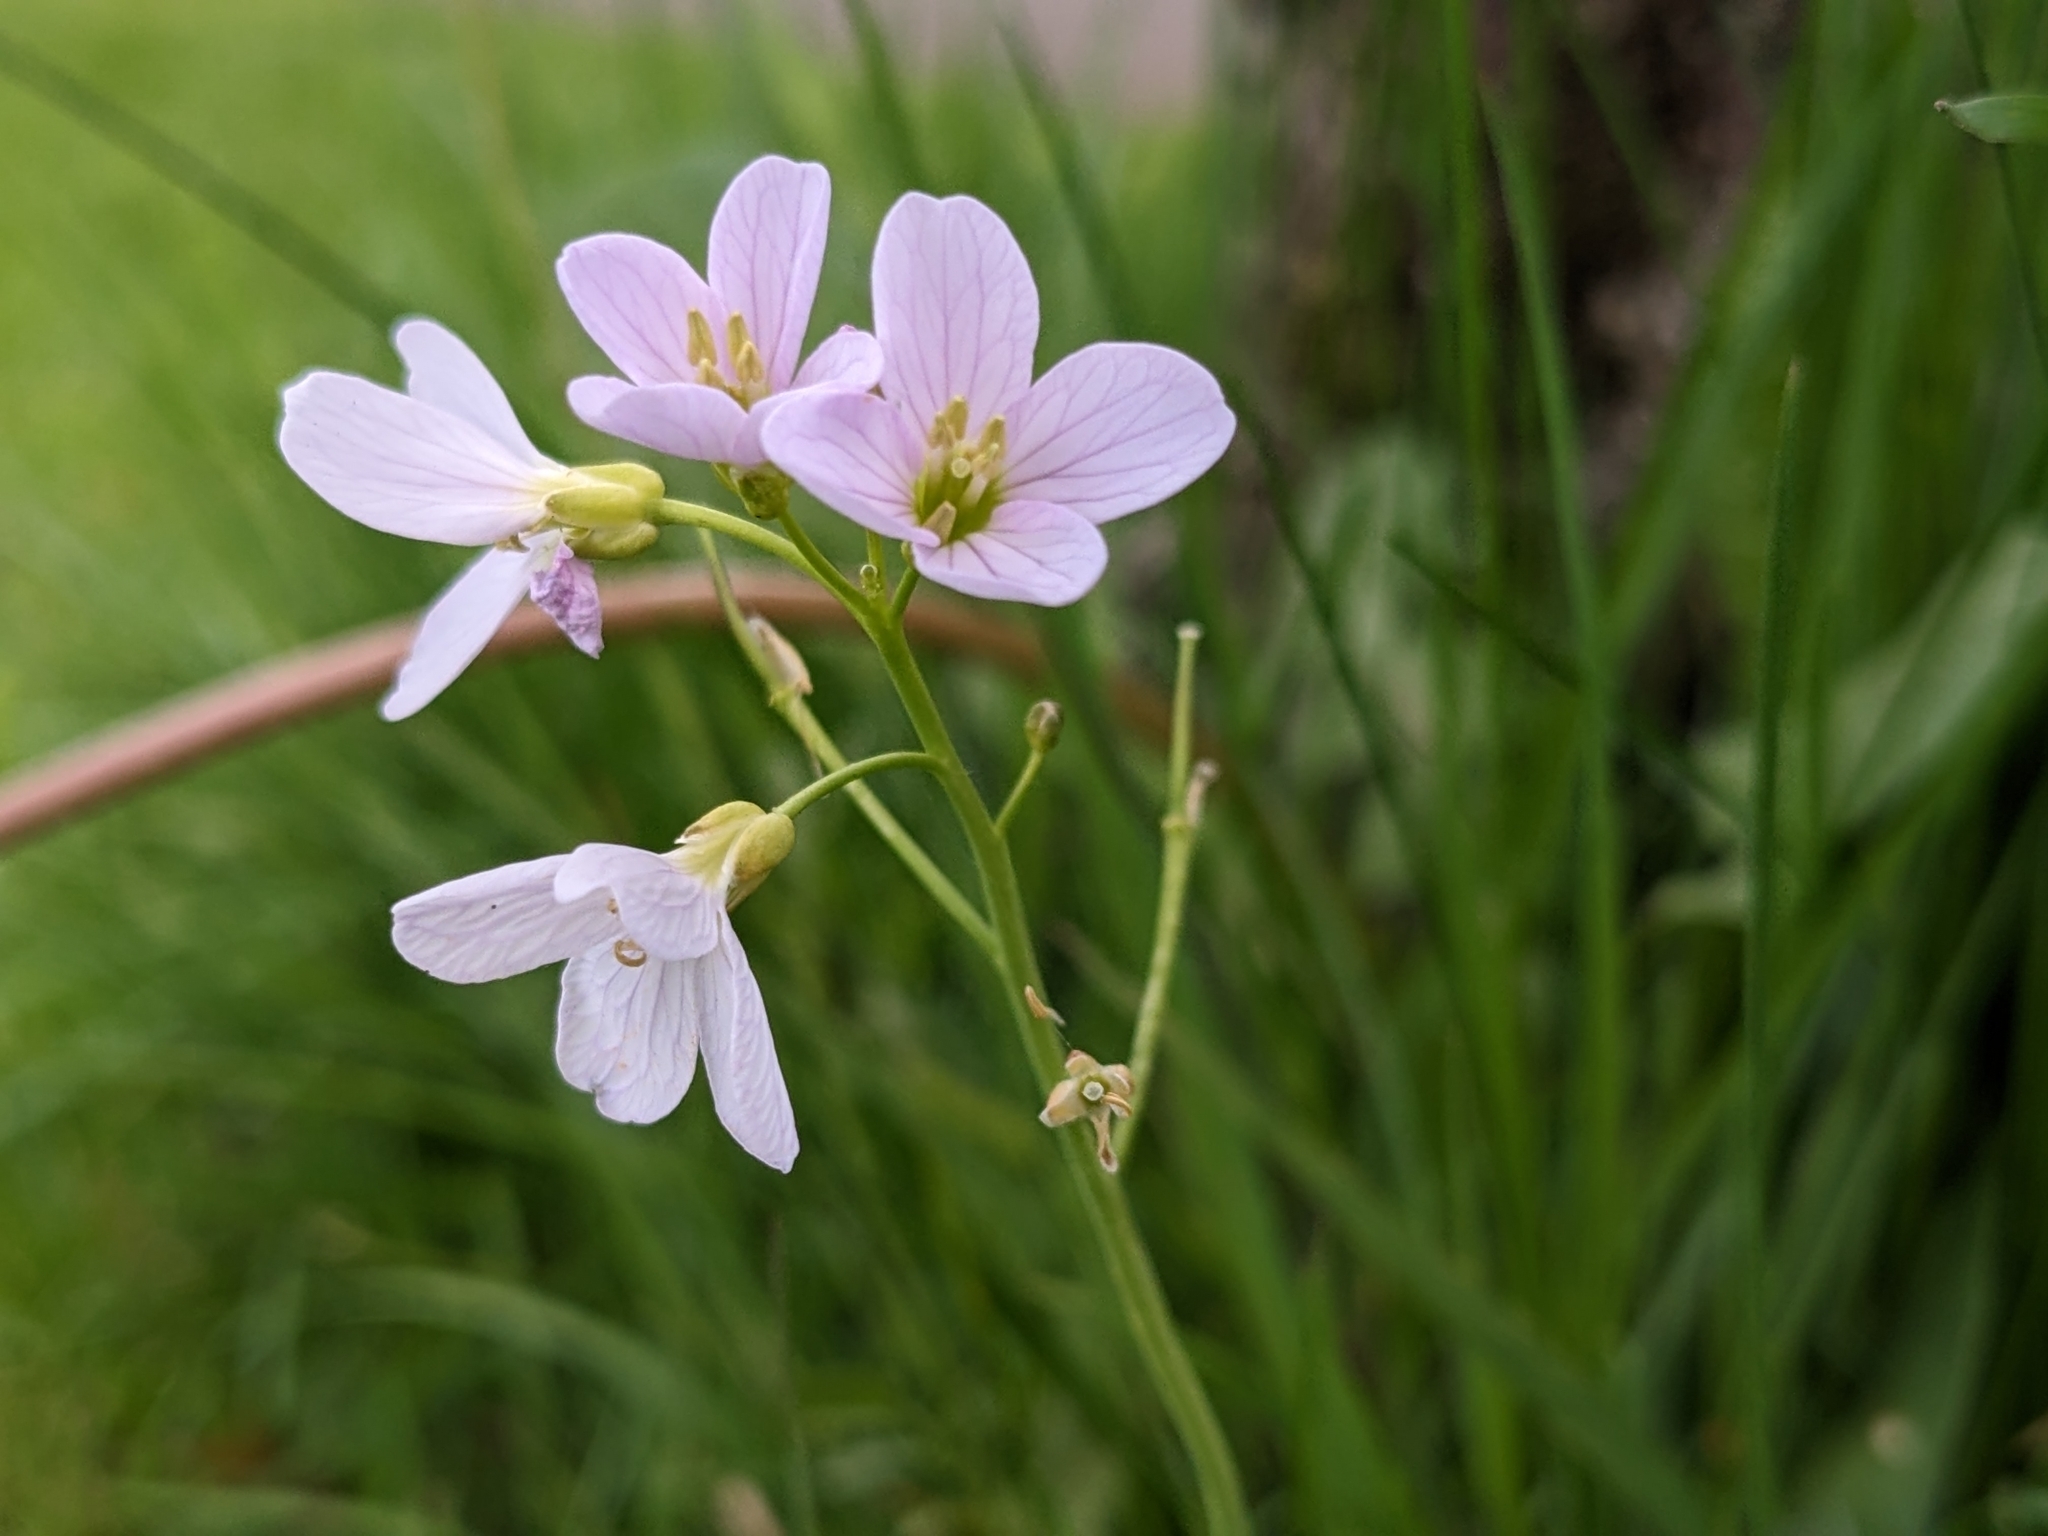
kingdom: Plantae
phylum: Tracheophyta
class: Magnoliopsida
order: Brassicales
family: Brassicaceae
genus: Cardamine
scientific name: Cardamine pratensis
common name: Cuckoo flower
